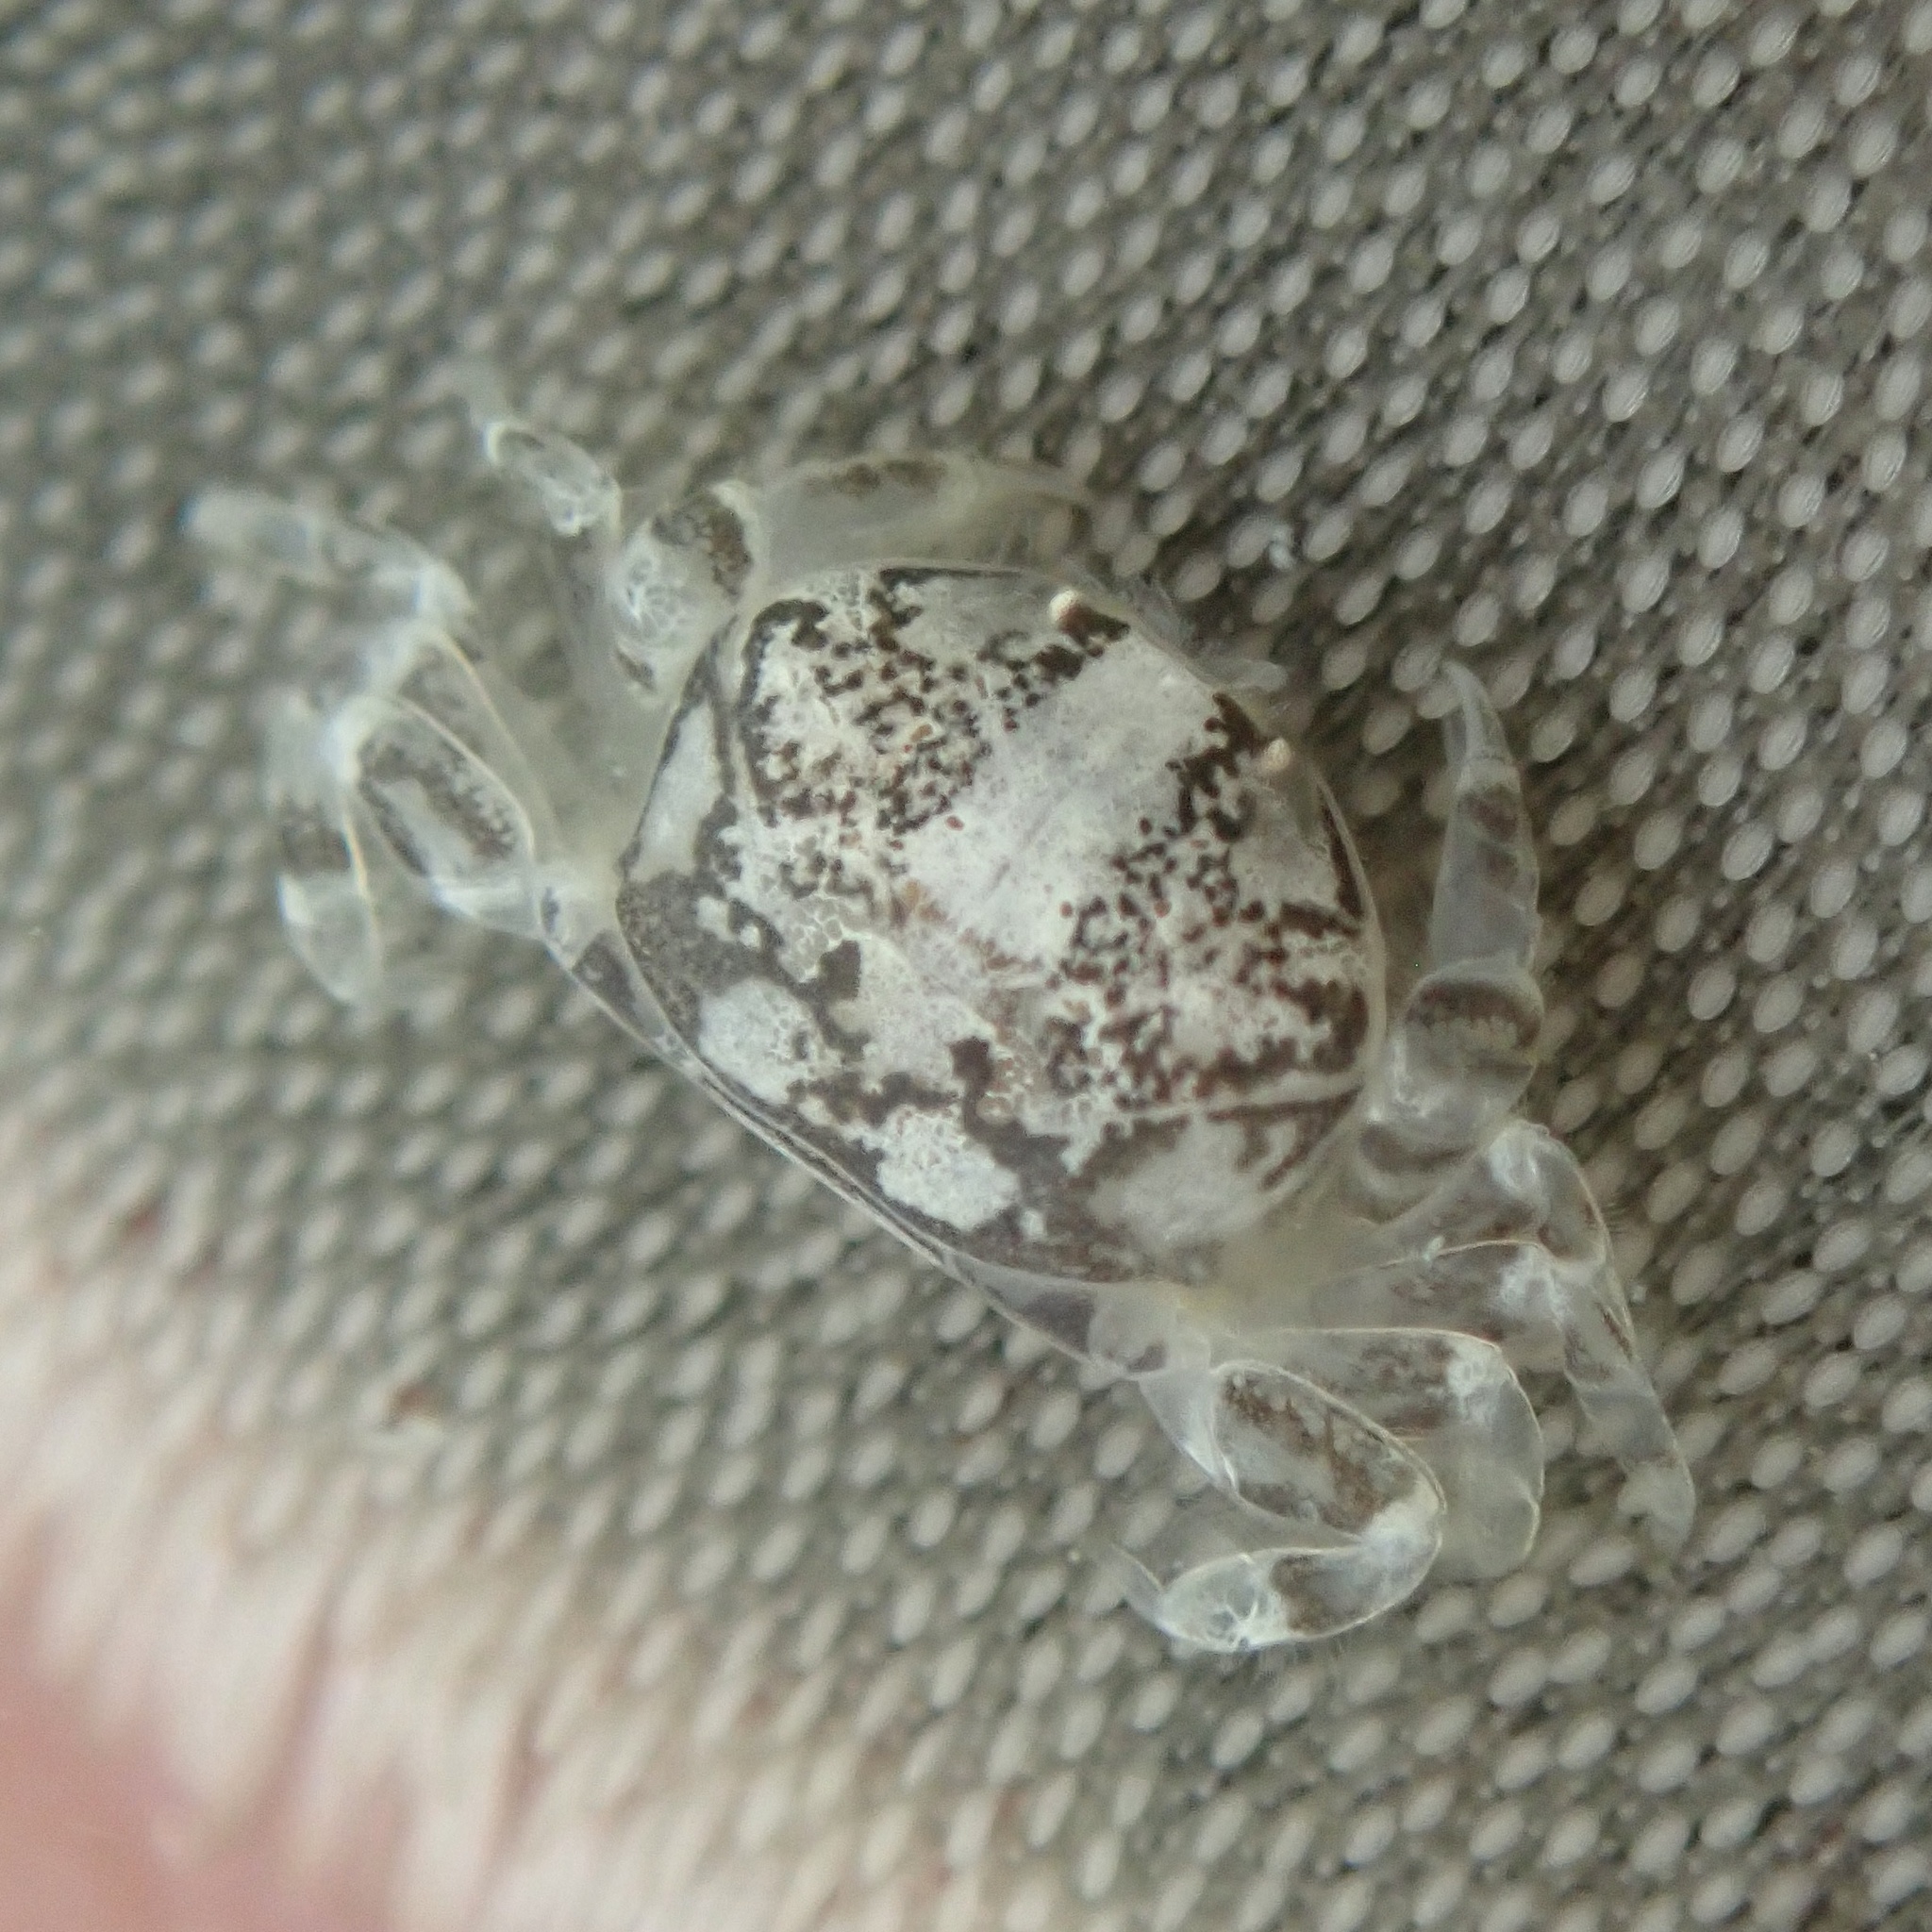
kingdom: Animalia
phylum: Arthropoda
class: Malacostraca
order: Decapoda
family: Pinnotheridae
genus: Dissodactylus
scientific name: Dissodactylus mellitae
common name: Sand-dollar pea crab
